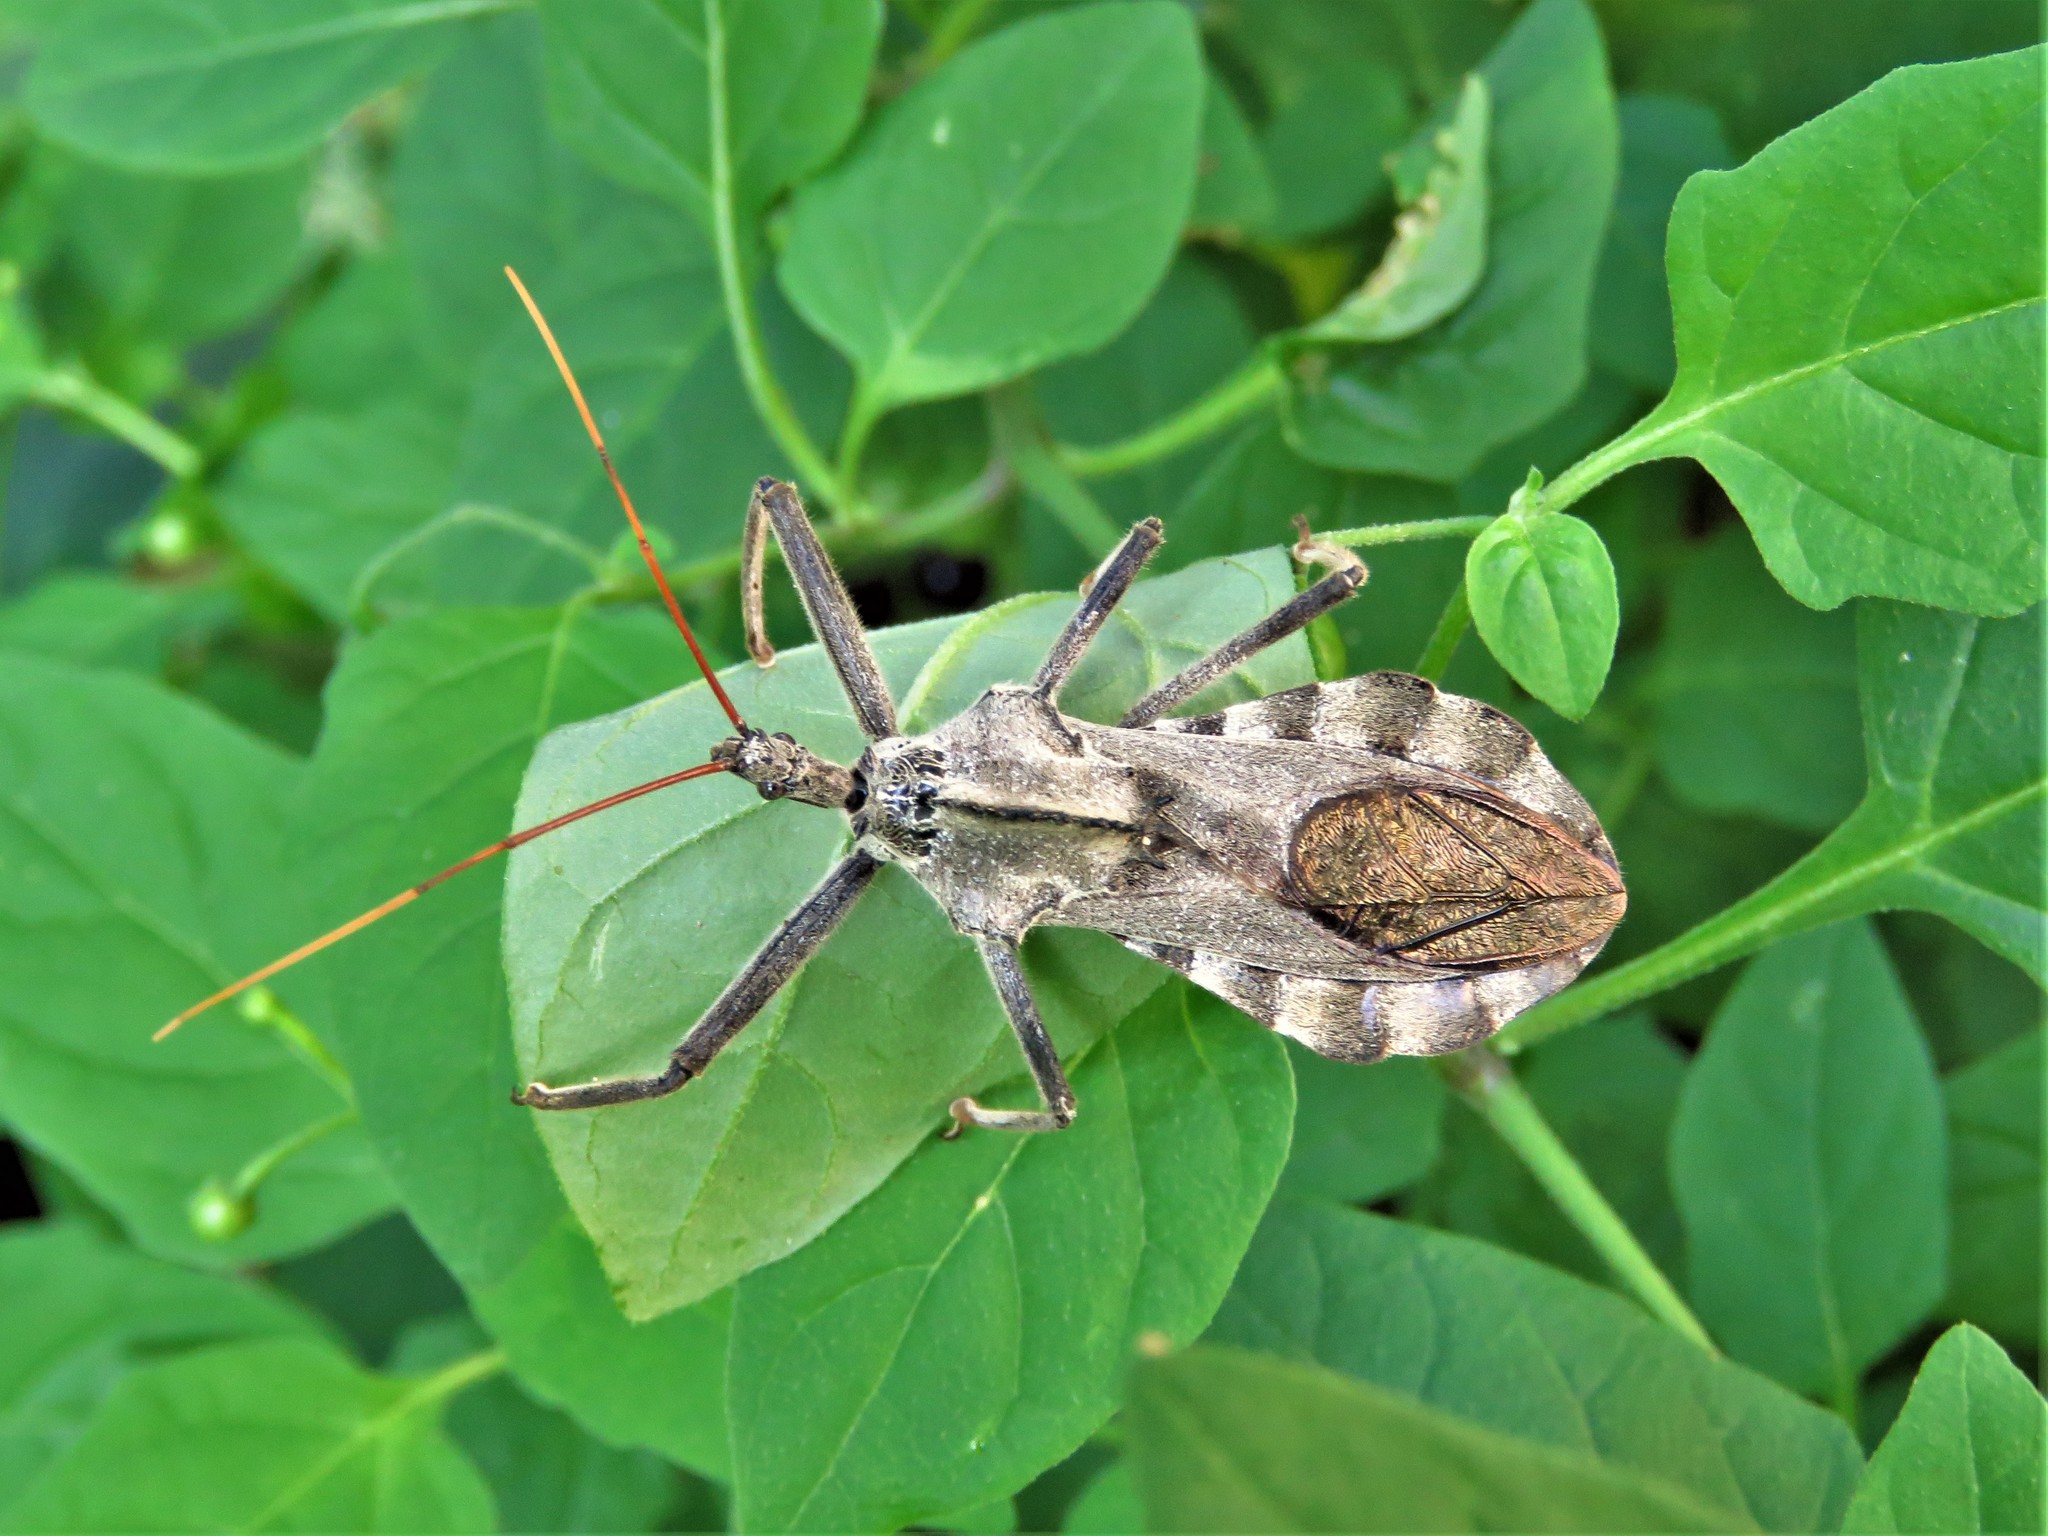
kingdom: Animalia
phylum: Arthropoda
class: Insecta
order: Hemiptera
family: Reduviidae
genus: Arilus
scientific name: Arilus cristatus
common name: North american wheel bug
